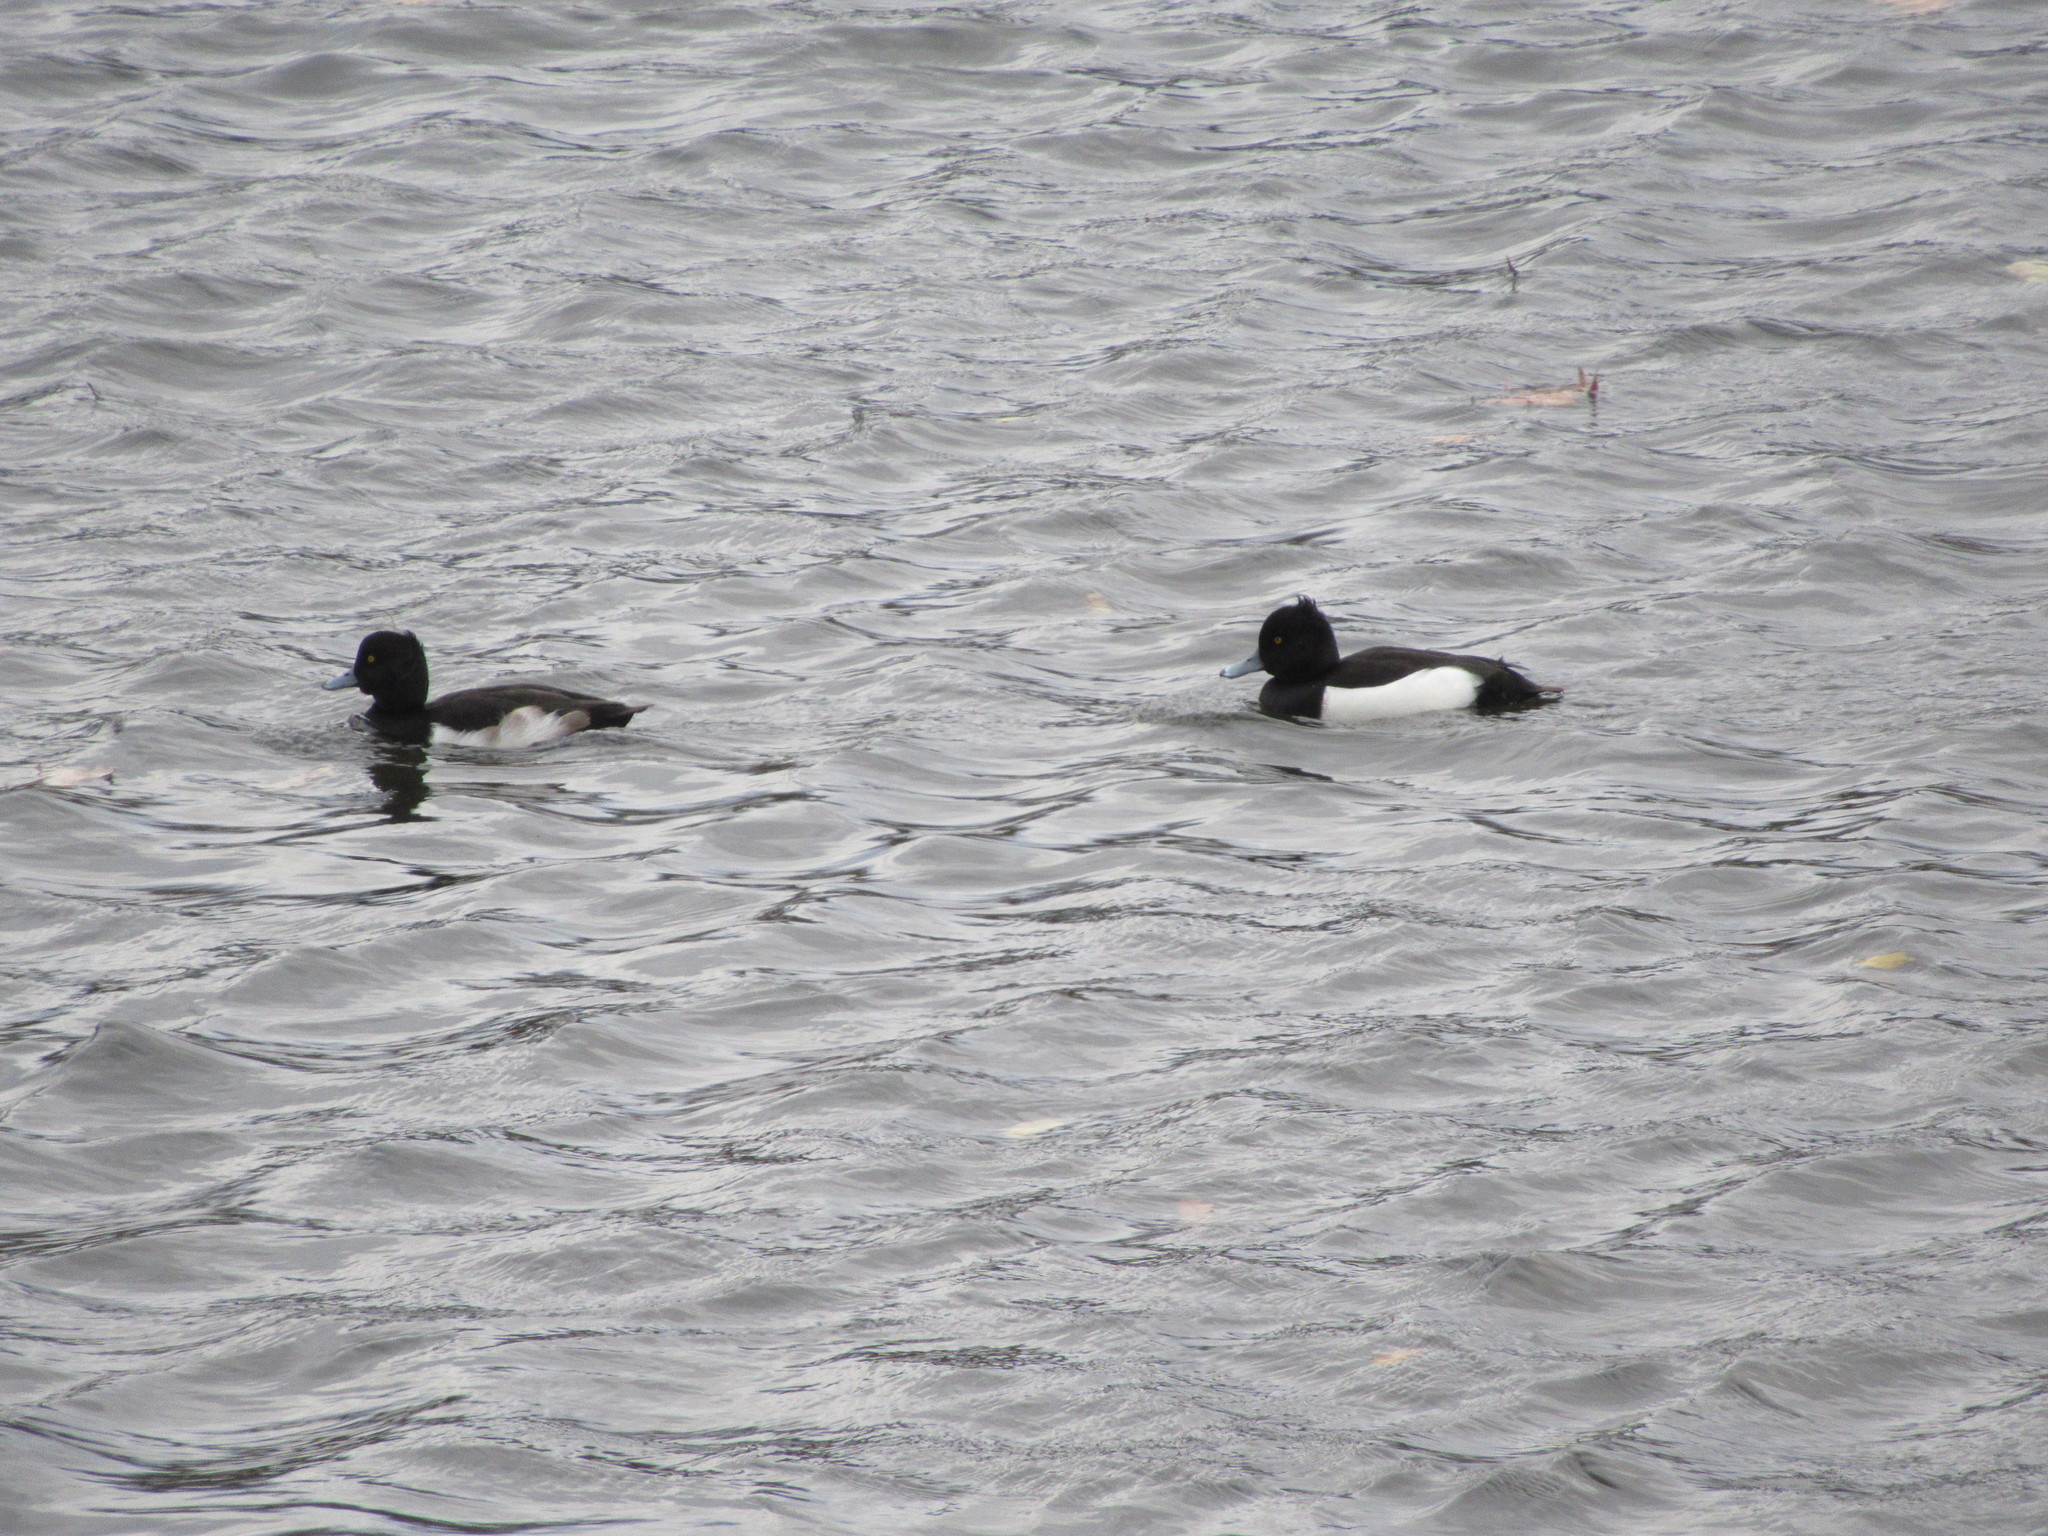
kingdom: Animalia
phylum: Chordata
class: Aves
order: Anseriformes
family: Anatidae
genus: Aythya
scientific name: Aythya fuligula
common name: Tufted duck
